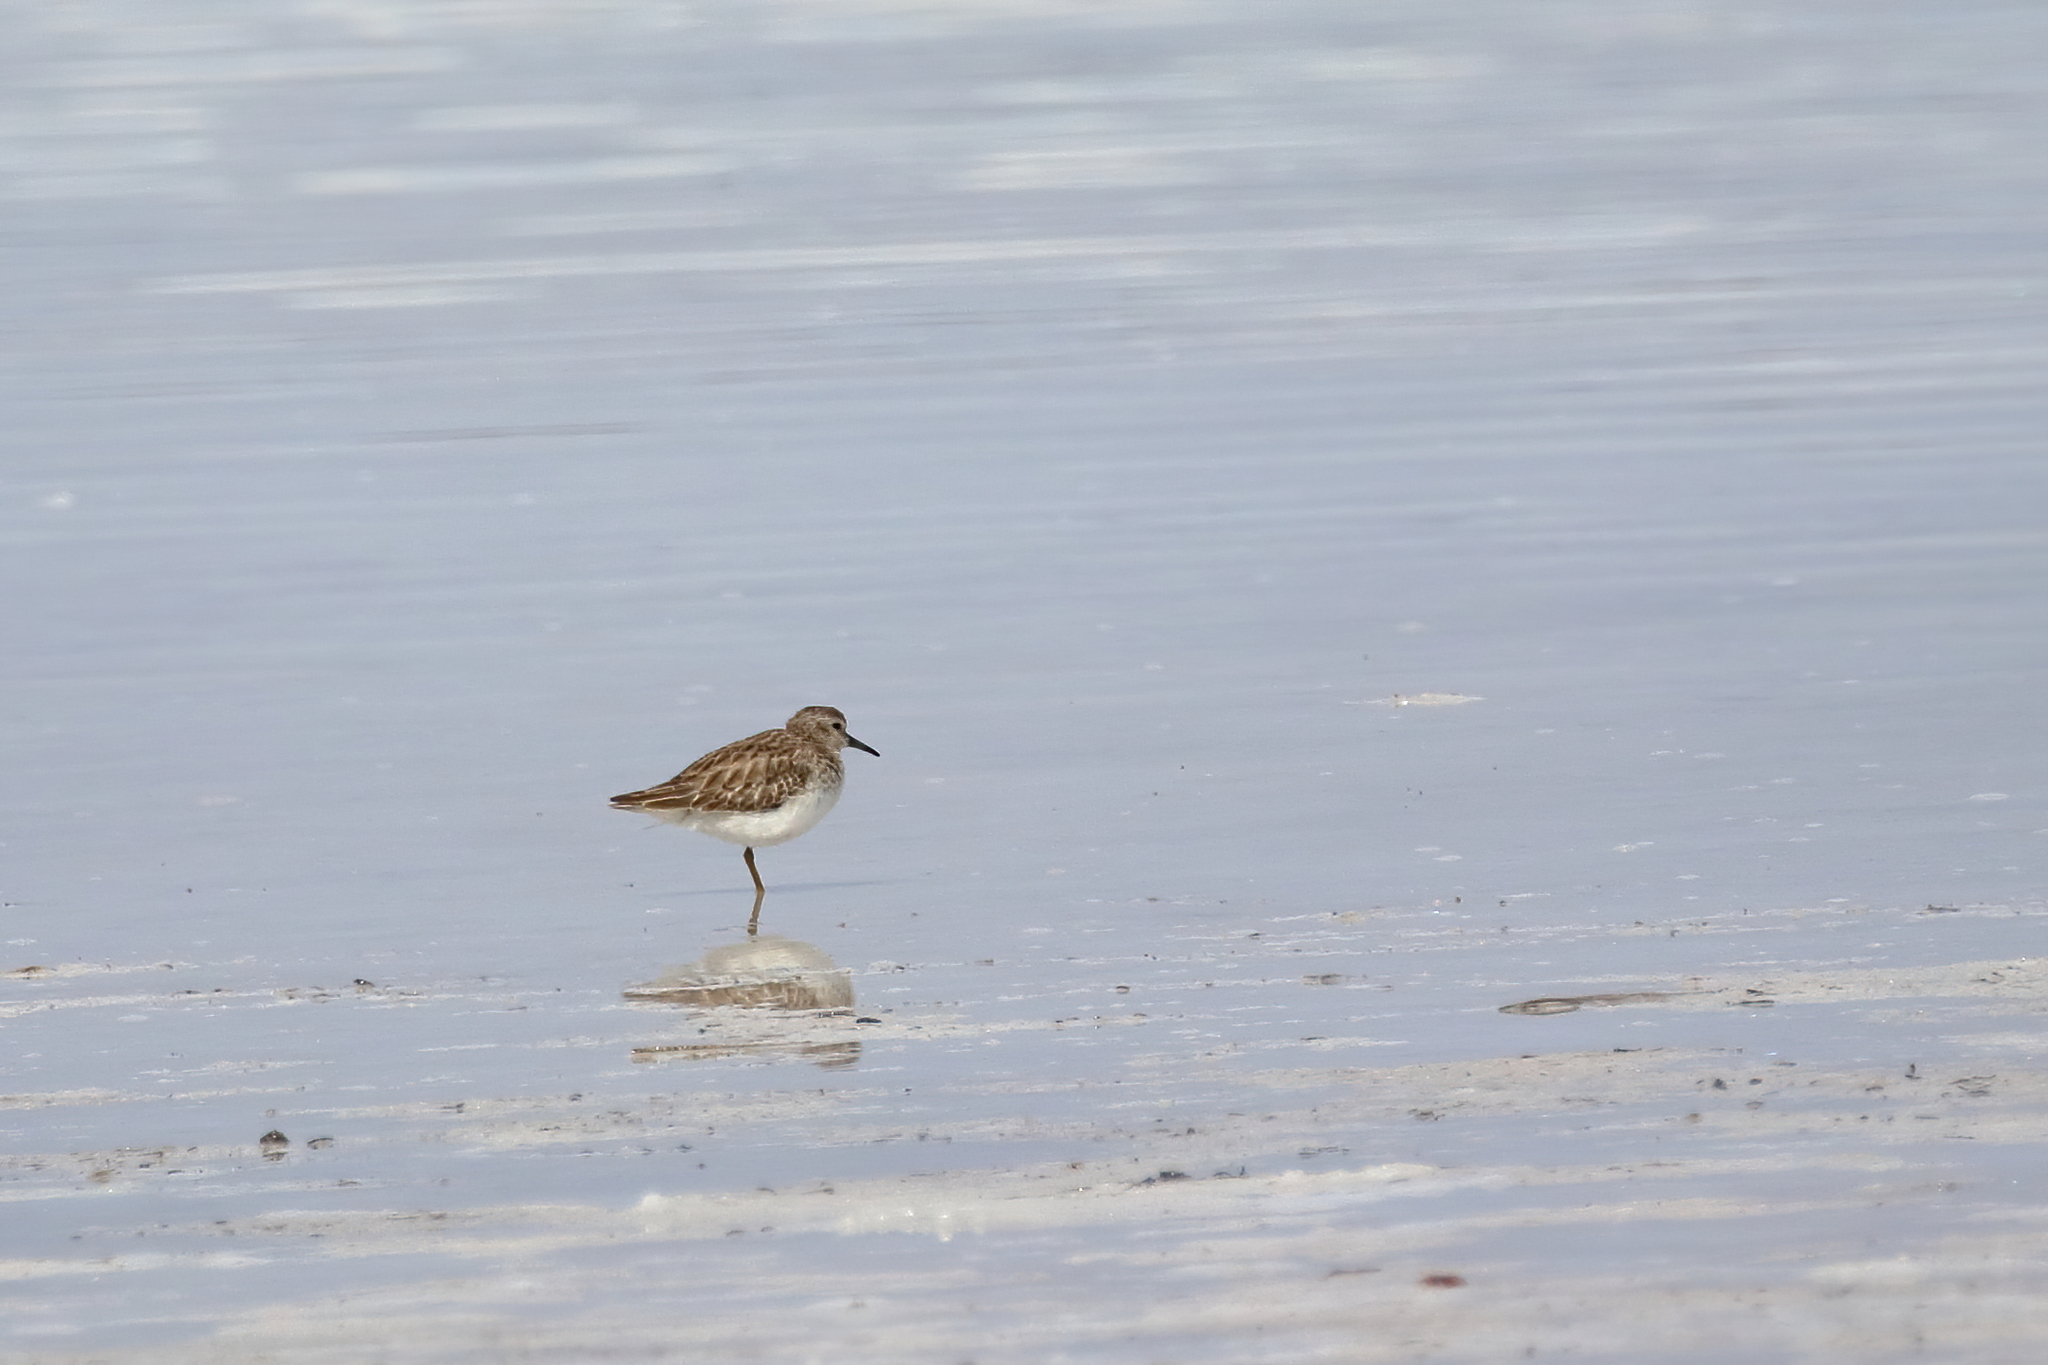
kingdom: Animalia
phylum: Chordata
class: Aves
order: Charadriiformes
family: Scolopacidae
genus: Calidris
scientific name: Calidris minutilla
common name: Least sandpiper
